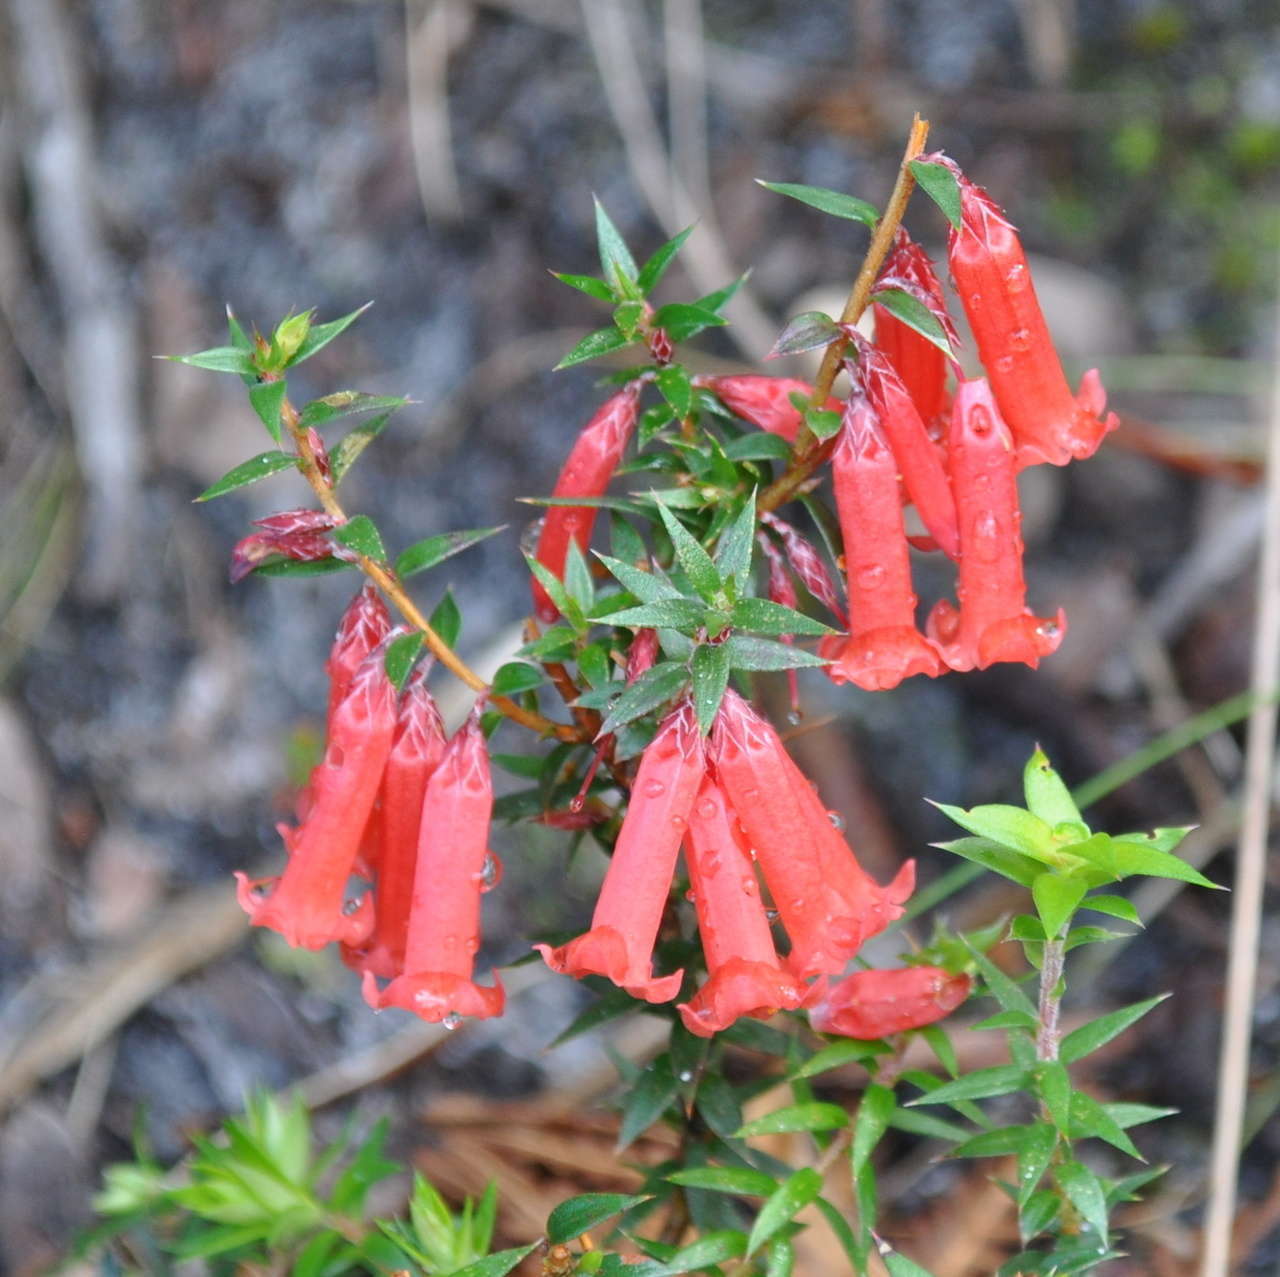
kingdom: Plantae
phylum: Tracheophyta
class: Magnoliopsida
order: Ericales
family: Ericaceae
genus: Epacris
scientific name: Epacris impressa
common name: Common-heath
